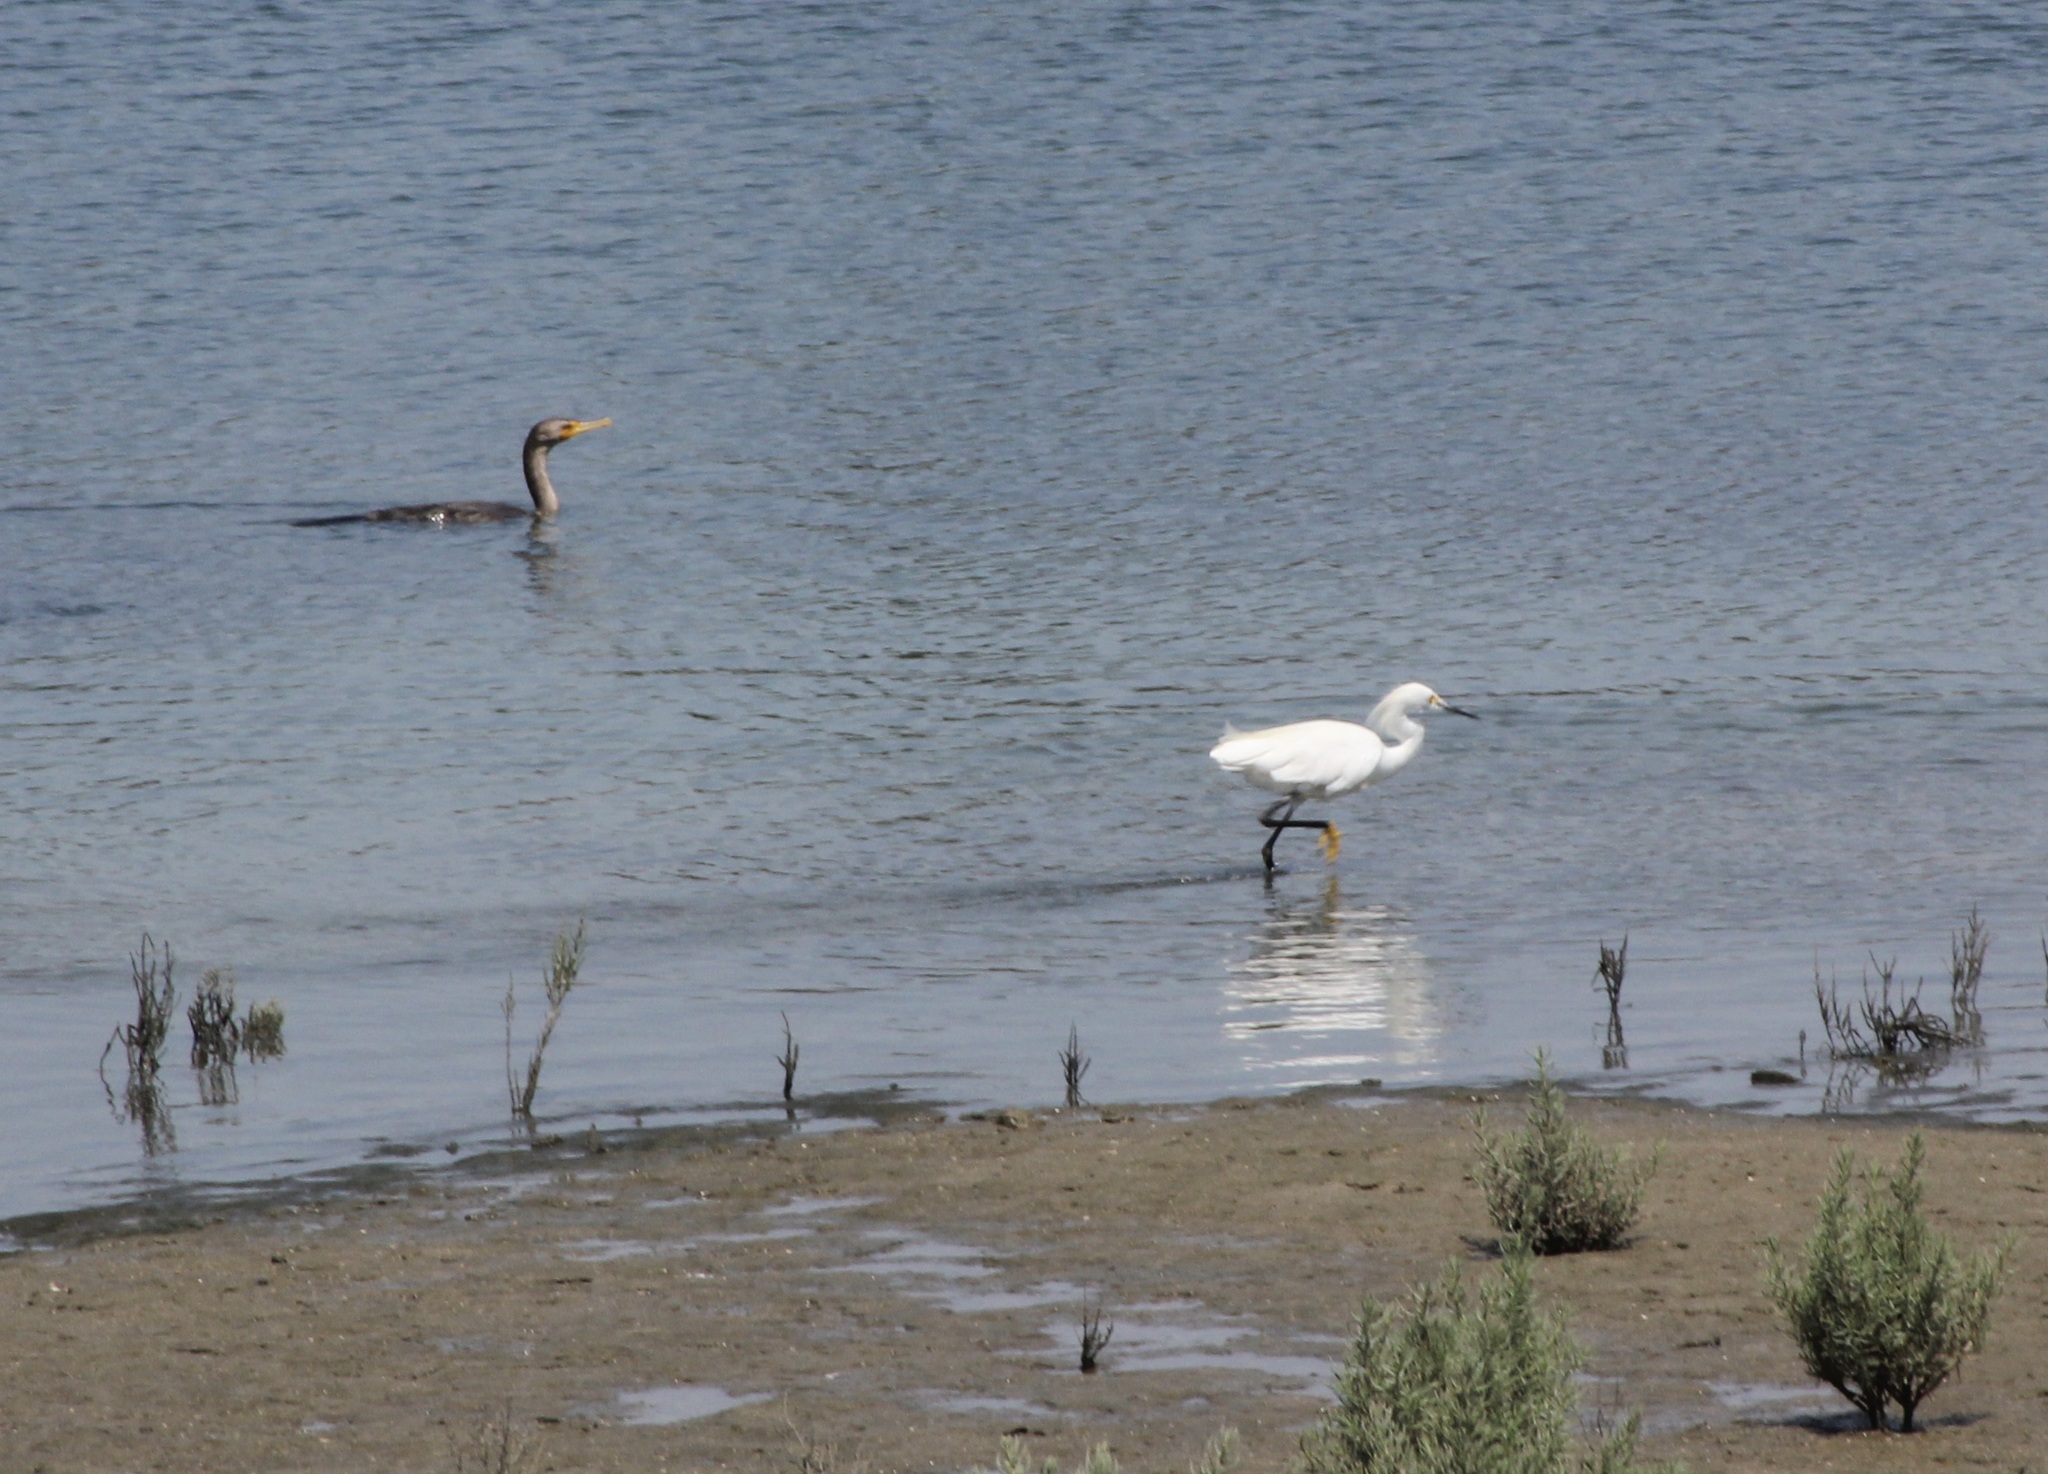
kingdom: Animalia
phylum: Chordata
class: Aves
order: Pelecaniformes
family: Ardeidae
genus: Egretta
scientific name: Egretta thula
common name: Snowy egret
